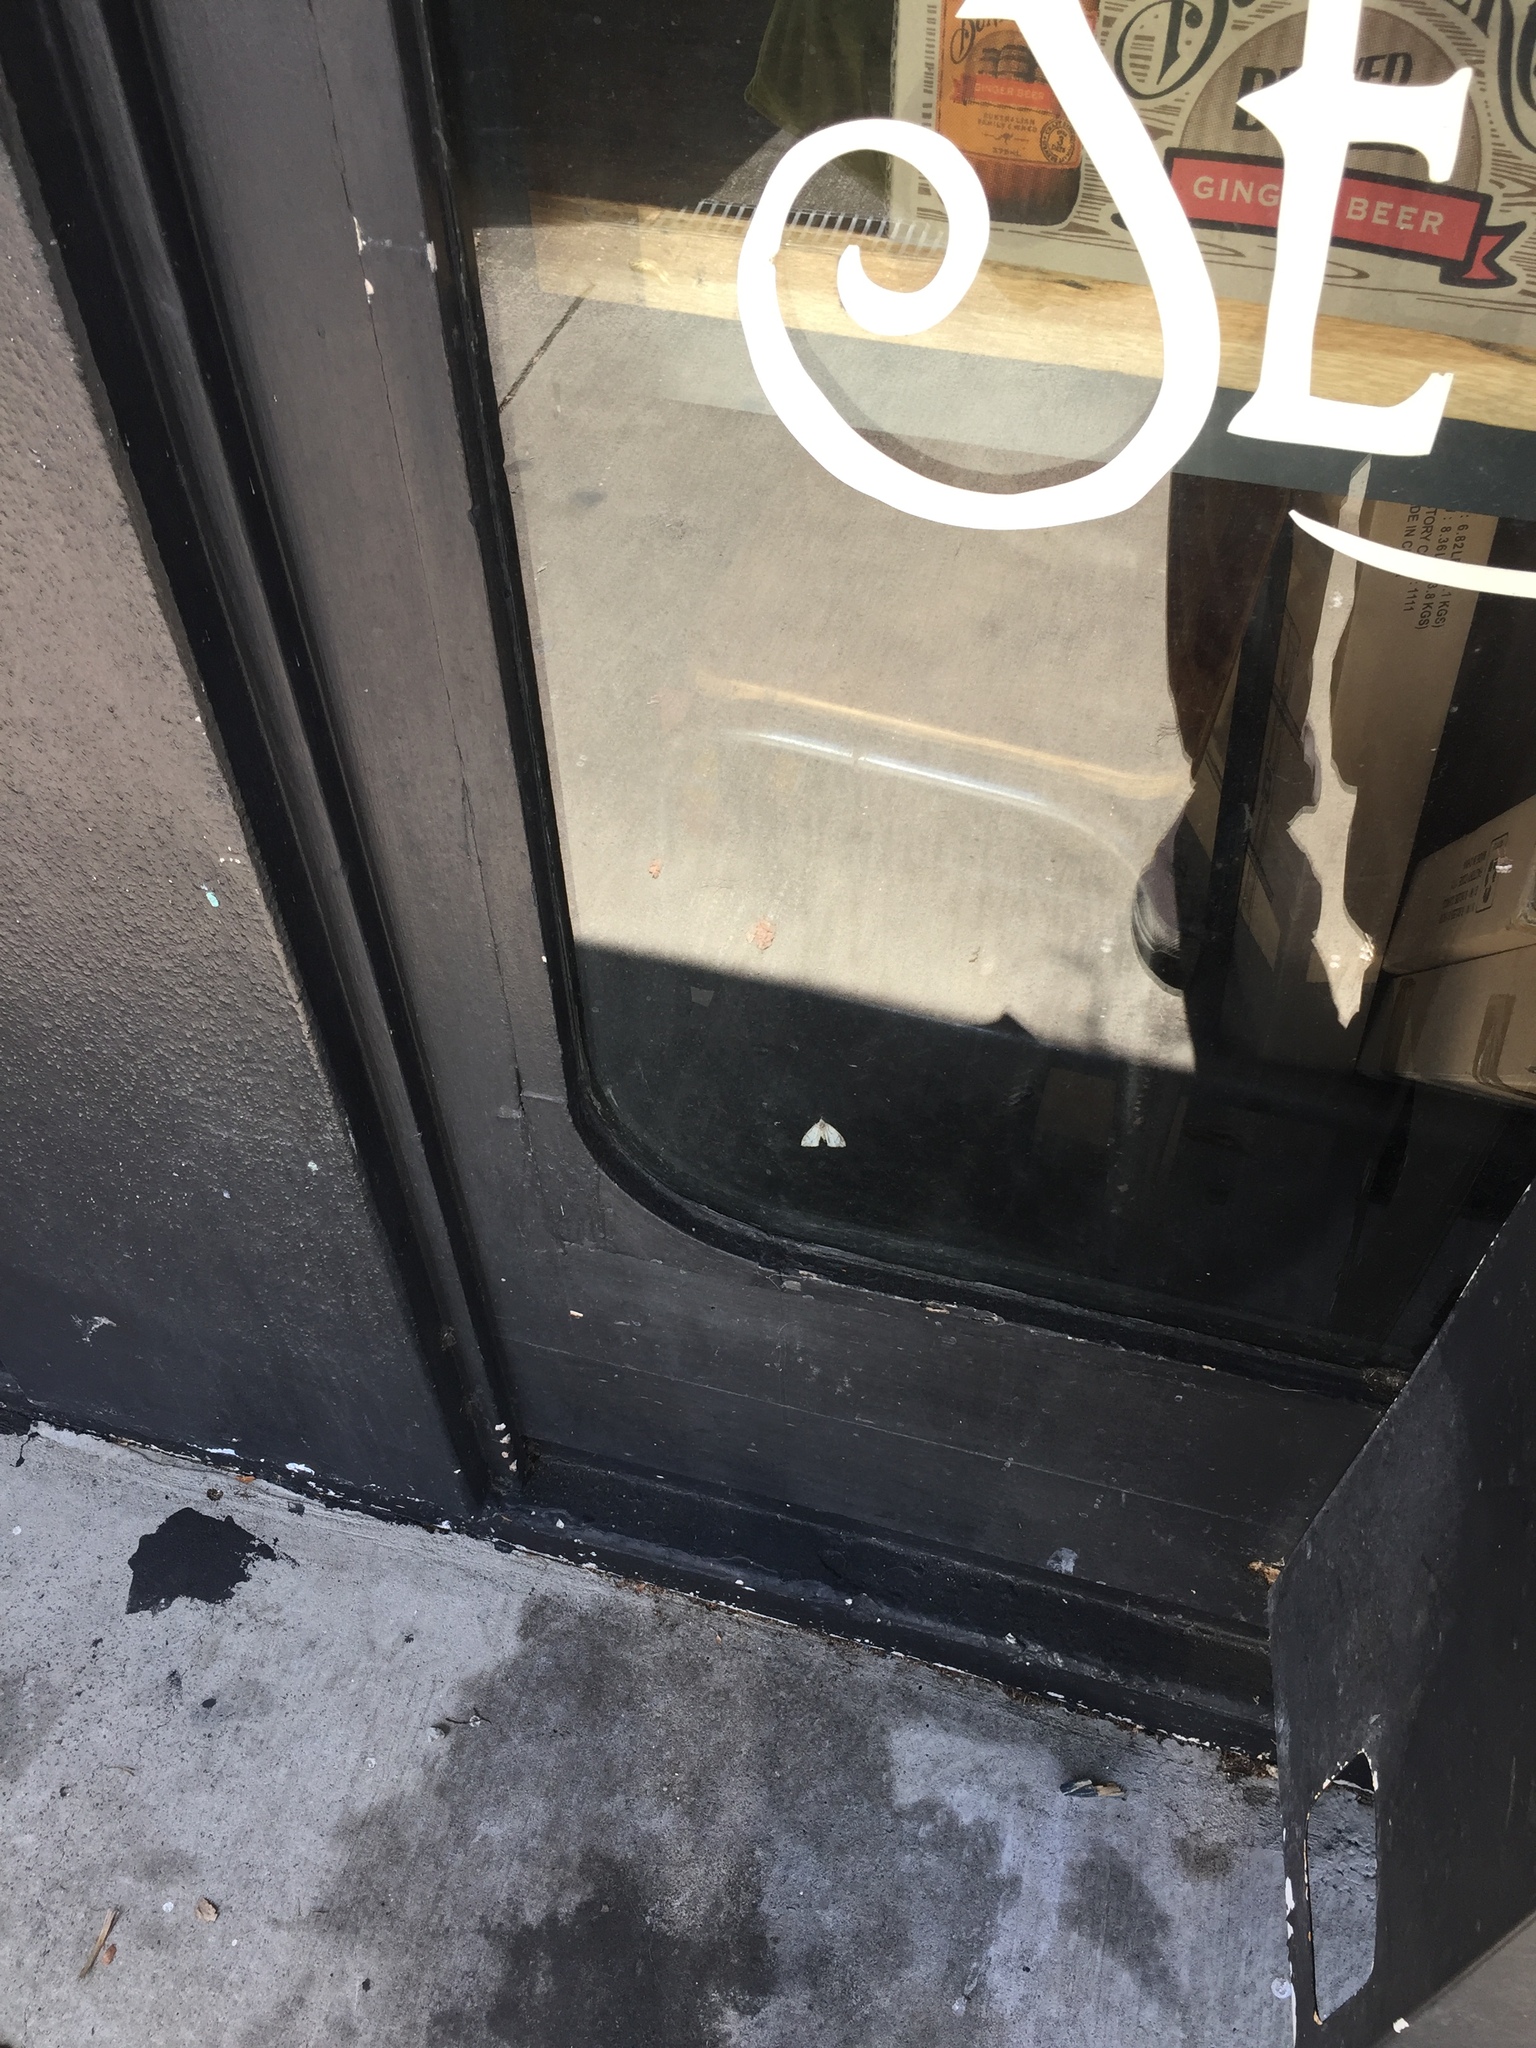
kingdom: Animalia
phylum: Arthropoda
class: Insecta
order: Lepidoptera
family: Geometridae
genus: Chalastra
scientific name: Chalastra aristarcha
